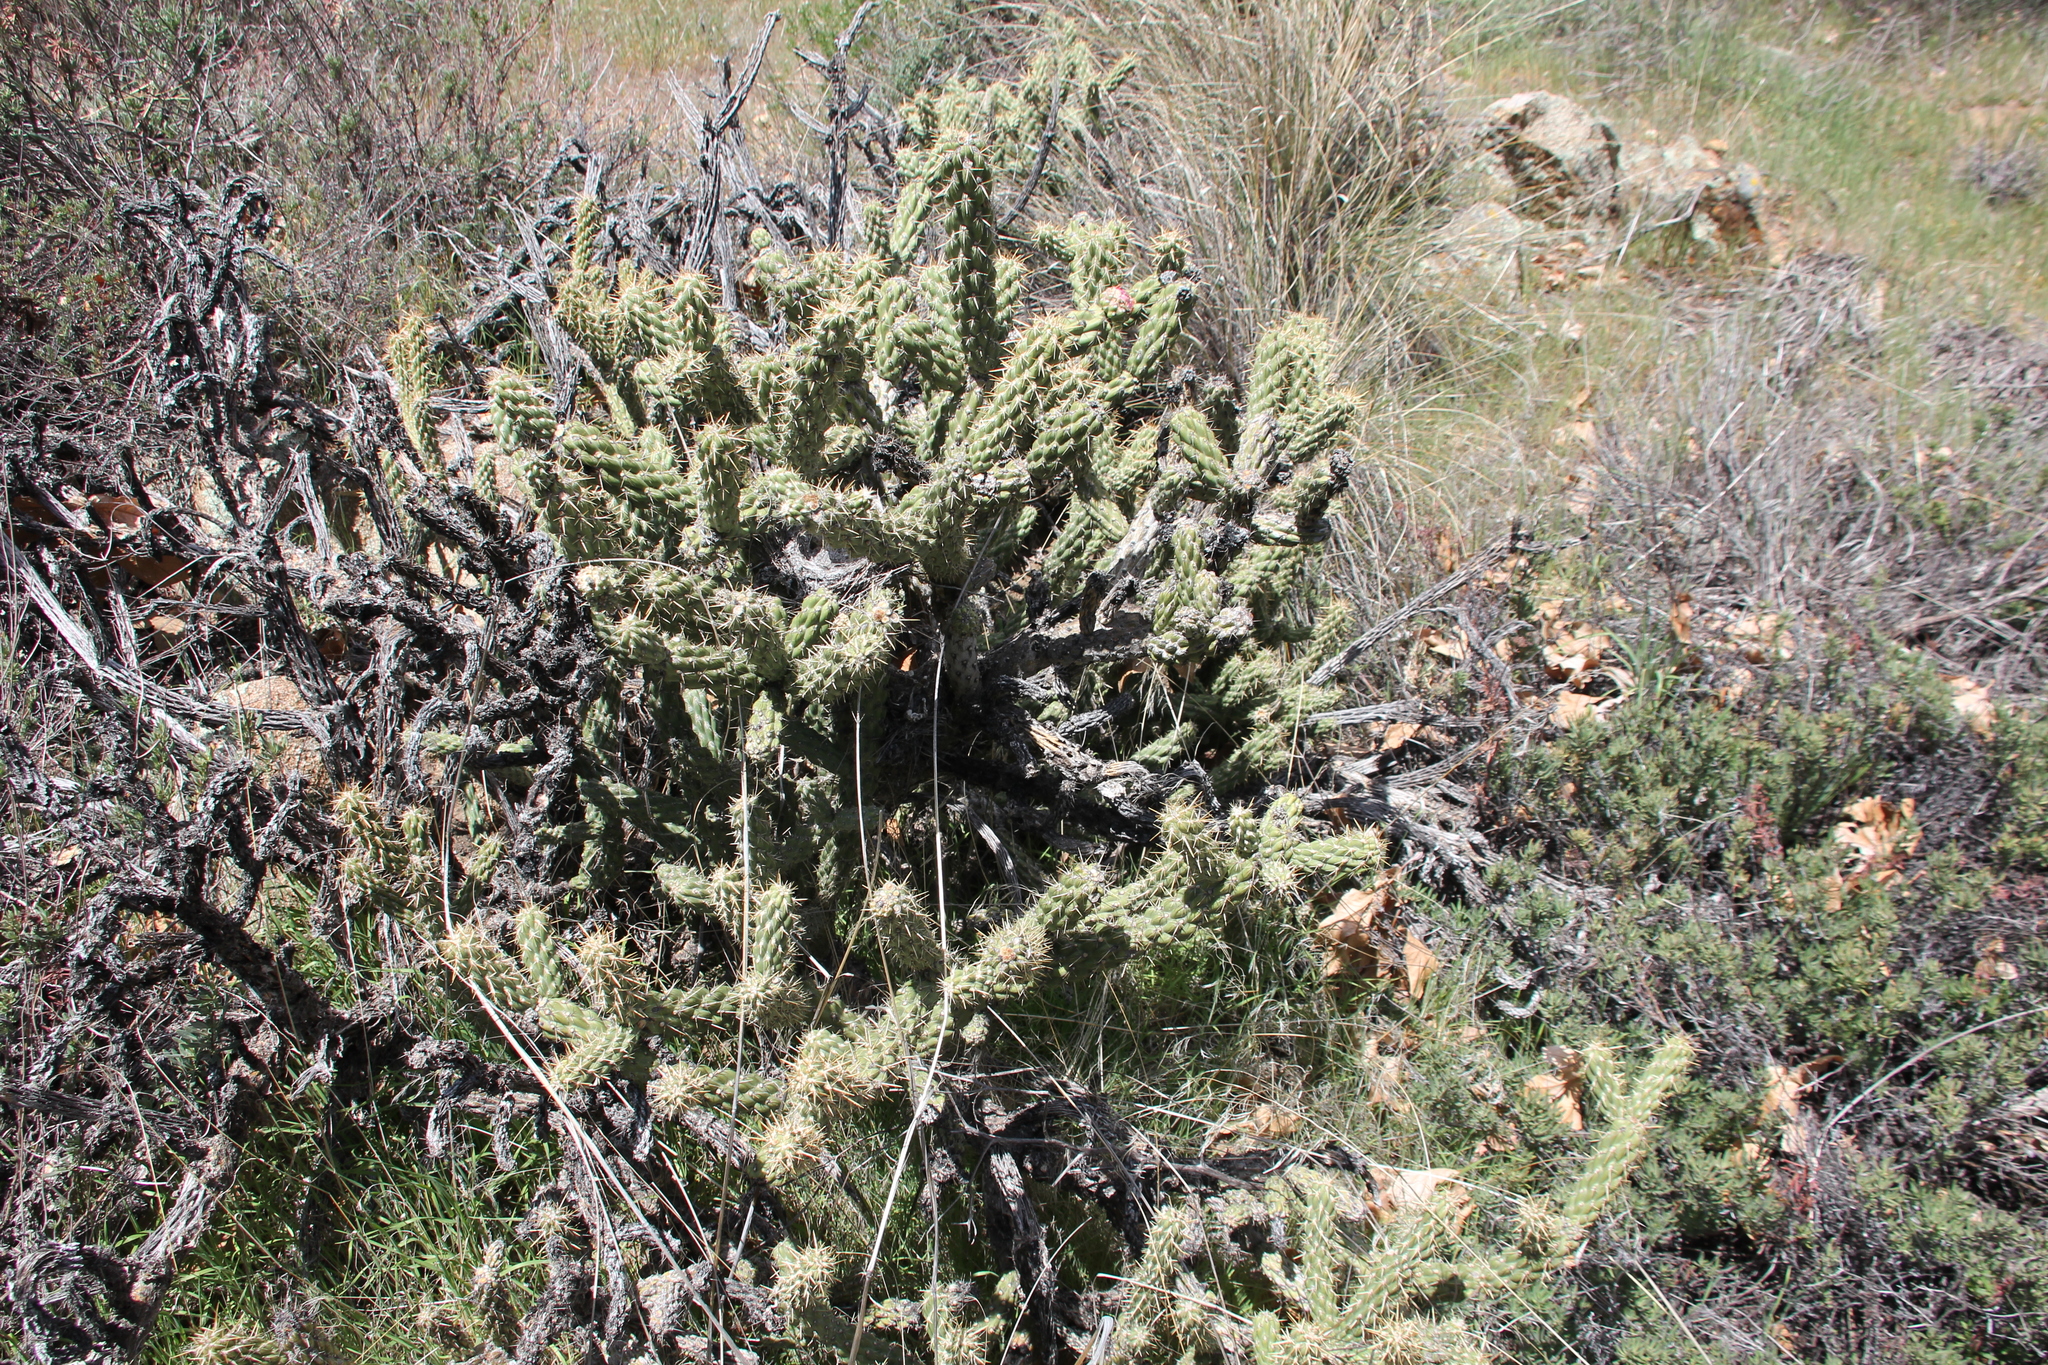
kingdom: Plantae
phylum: Tracheophyta
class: Magnoliopsida
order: Caryophyllales
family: Cactaceae
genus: Cylindropuntia
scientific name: Cylindropuntia californica
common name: Snake cholla
